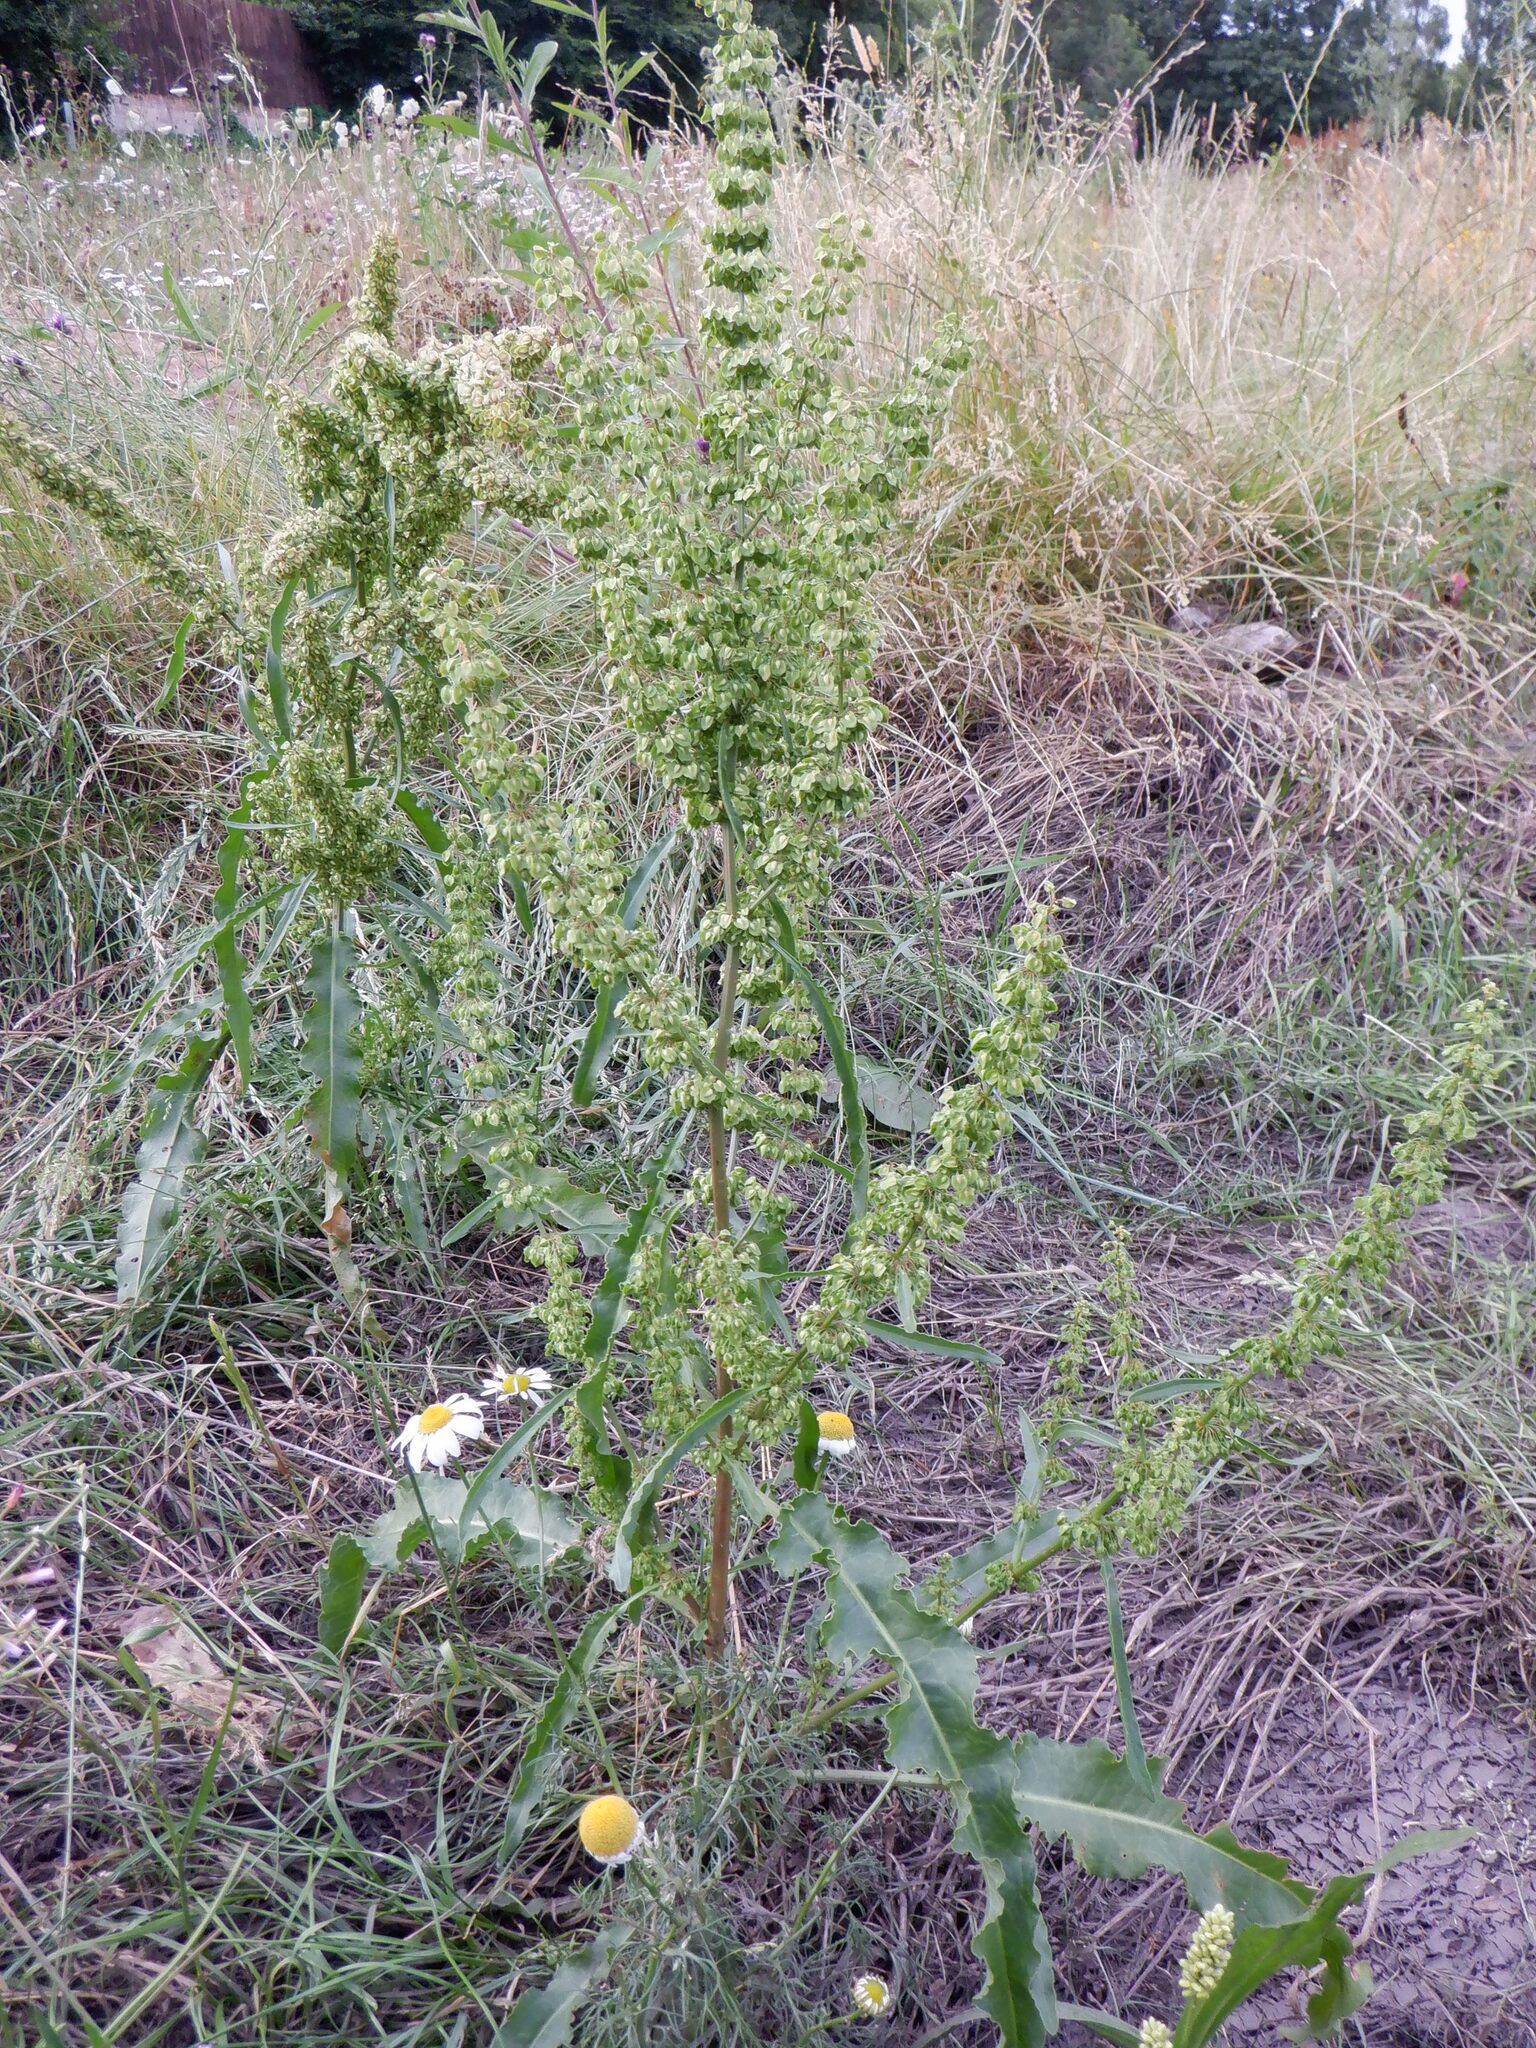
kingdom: Plantae
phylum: Tracheophyta
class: Magnoliopsida
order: Caryophyllales
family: Polygonaceae
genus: Rumex
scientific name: Rumex crispus
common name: Curled dock
